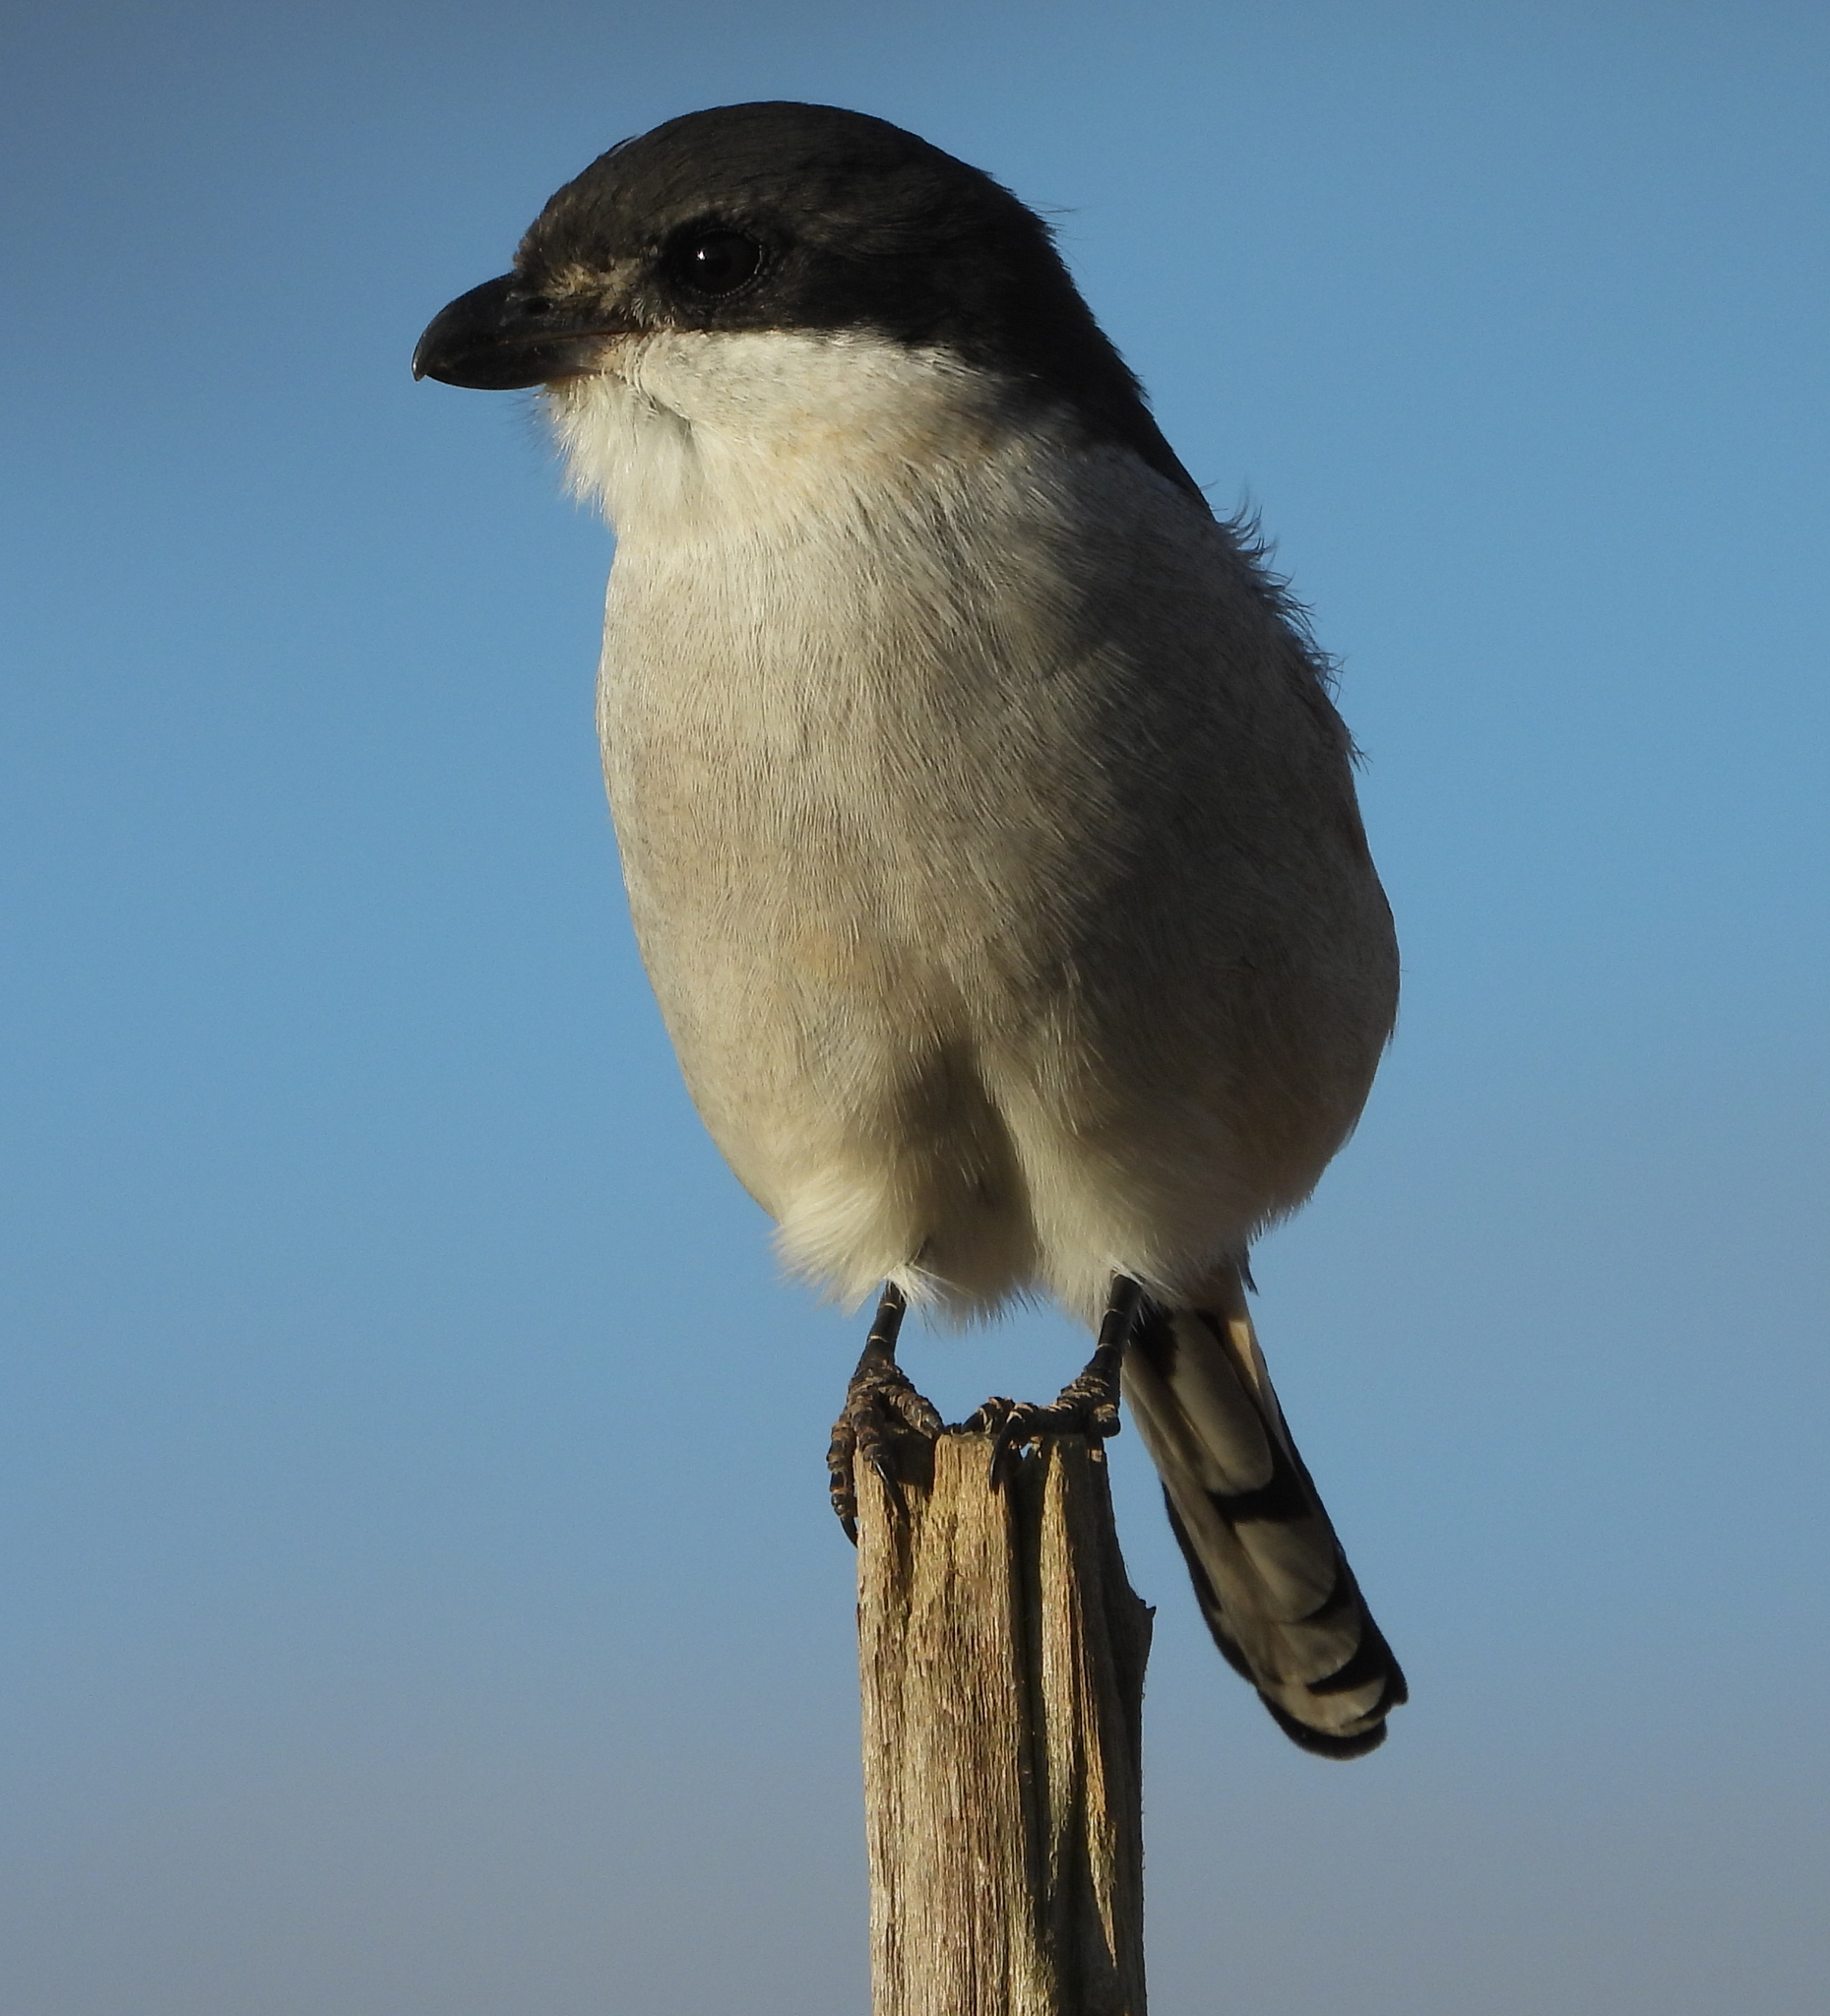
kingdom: Animalia
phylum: Chordata
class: Aves
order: Passeriformes
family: Laniidae
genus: Lanius
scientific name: Lanius collaris
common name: Southern fiscal
